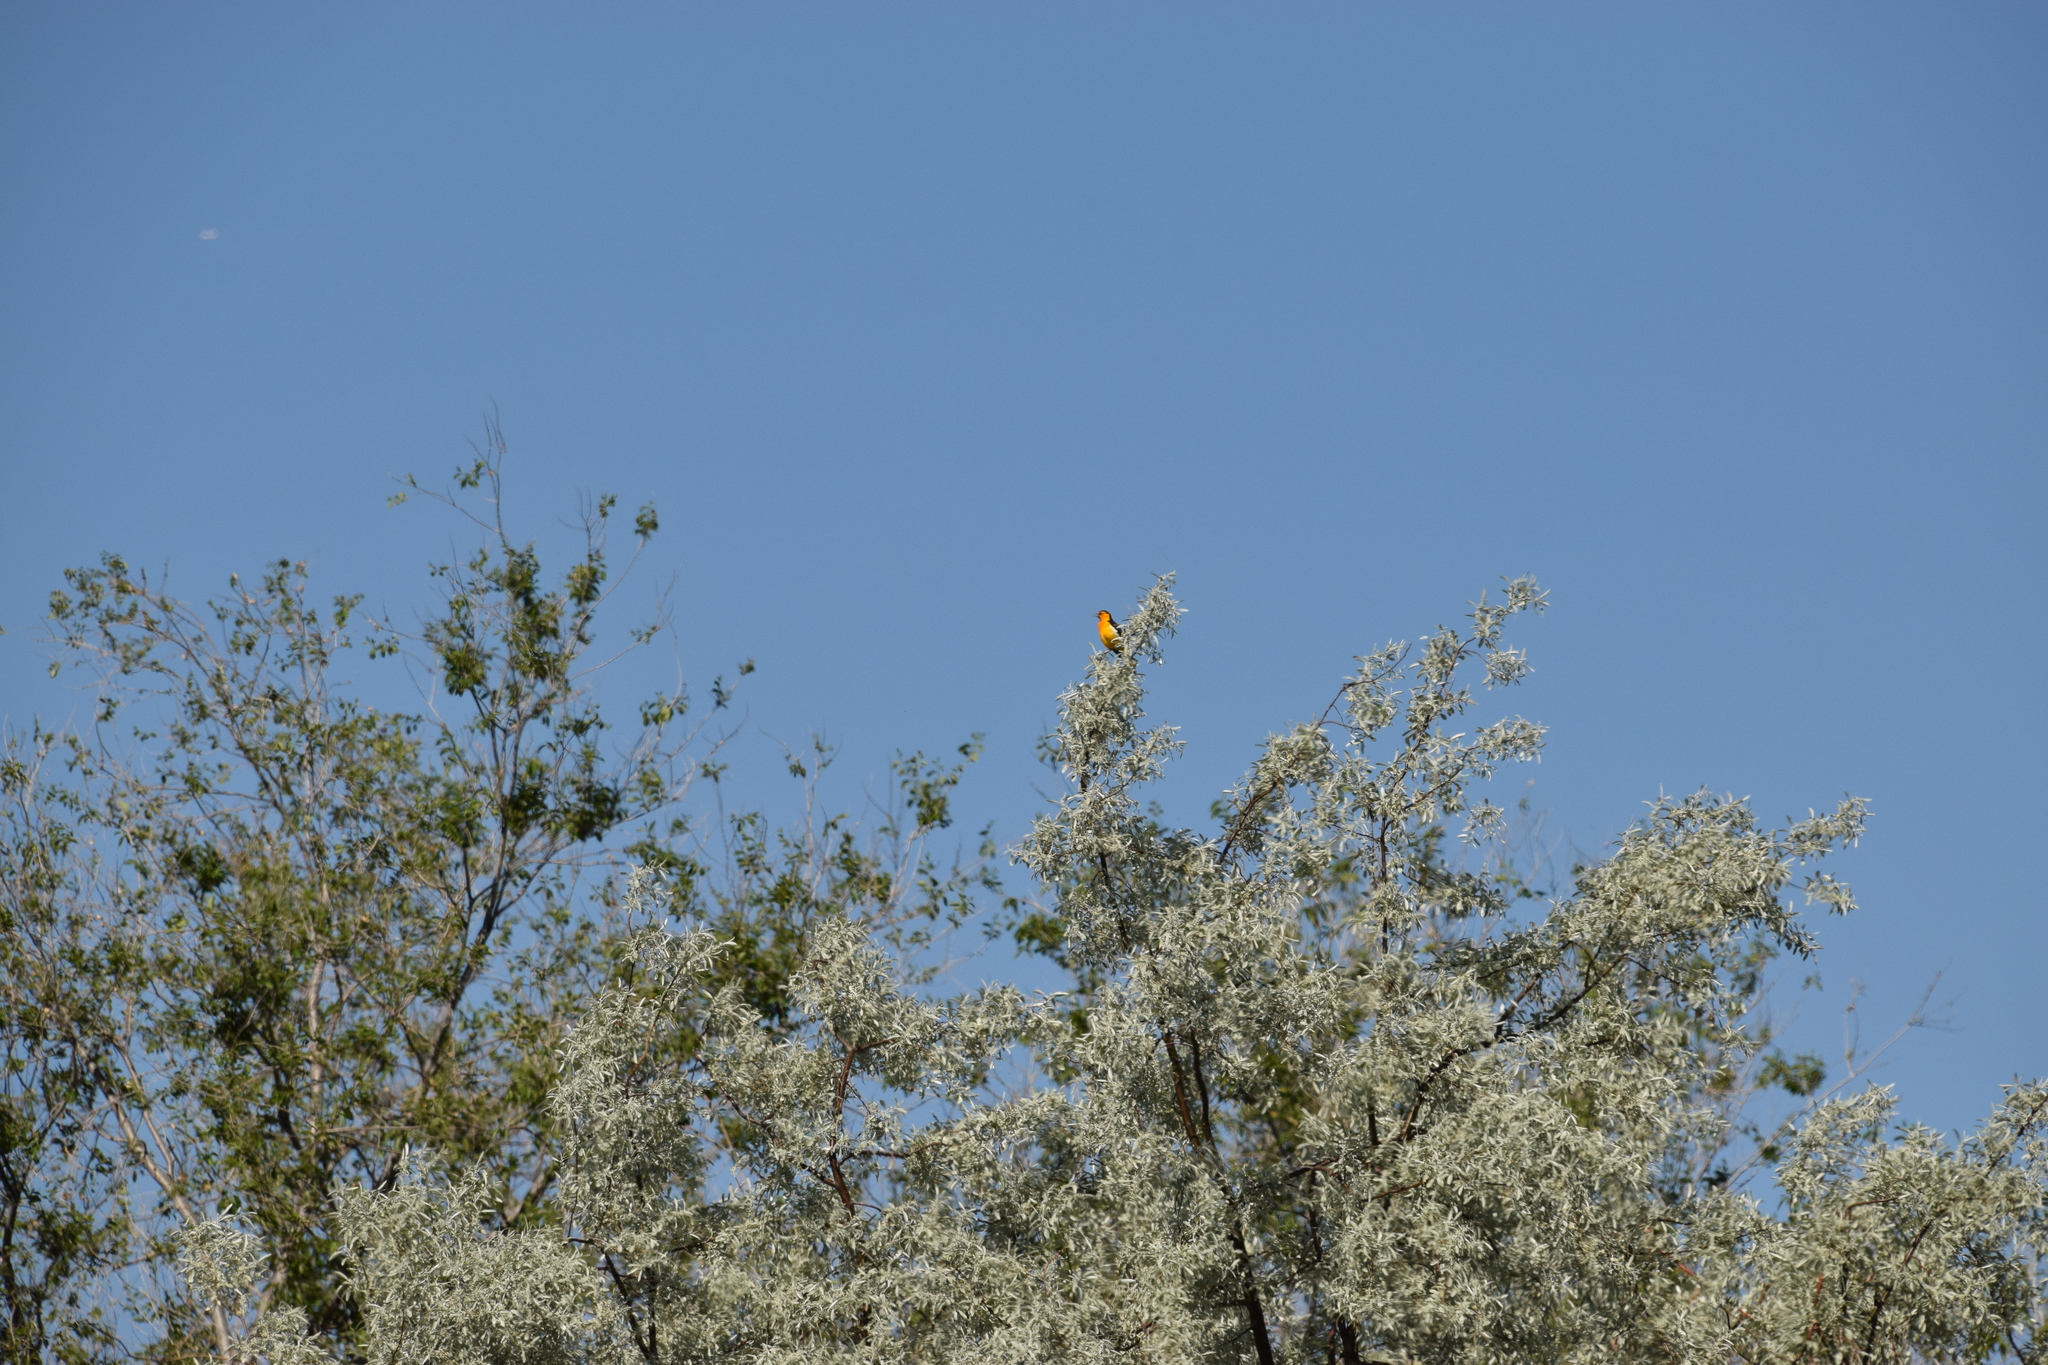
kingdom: Animalia
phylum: Chordata
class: Aves
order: Passeriformes
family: Icteridae
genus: Icterus
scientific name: Icterus bullockii
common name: Bullock's oriole
